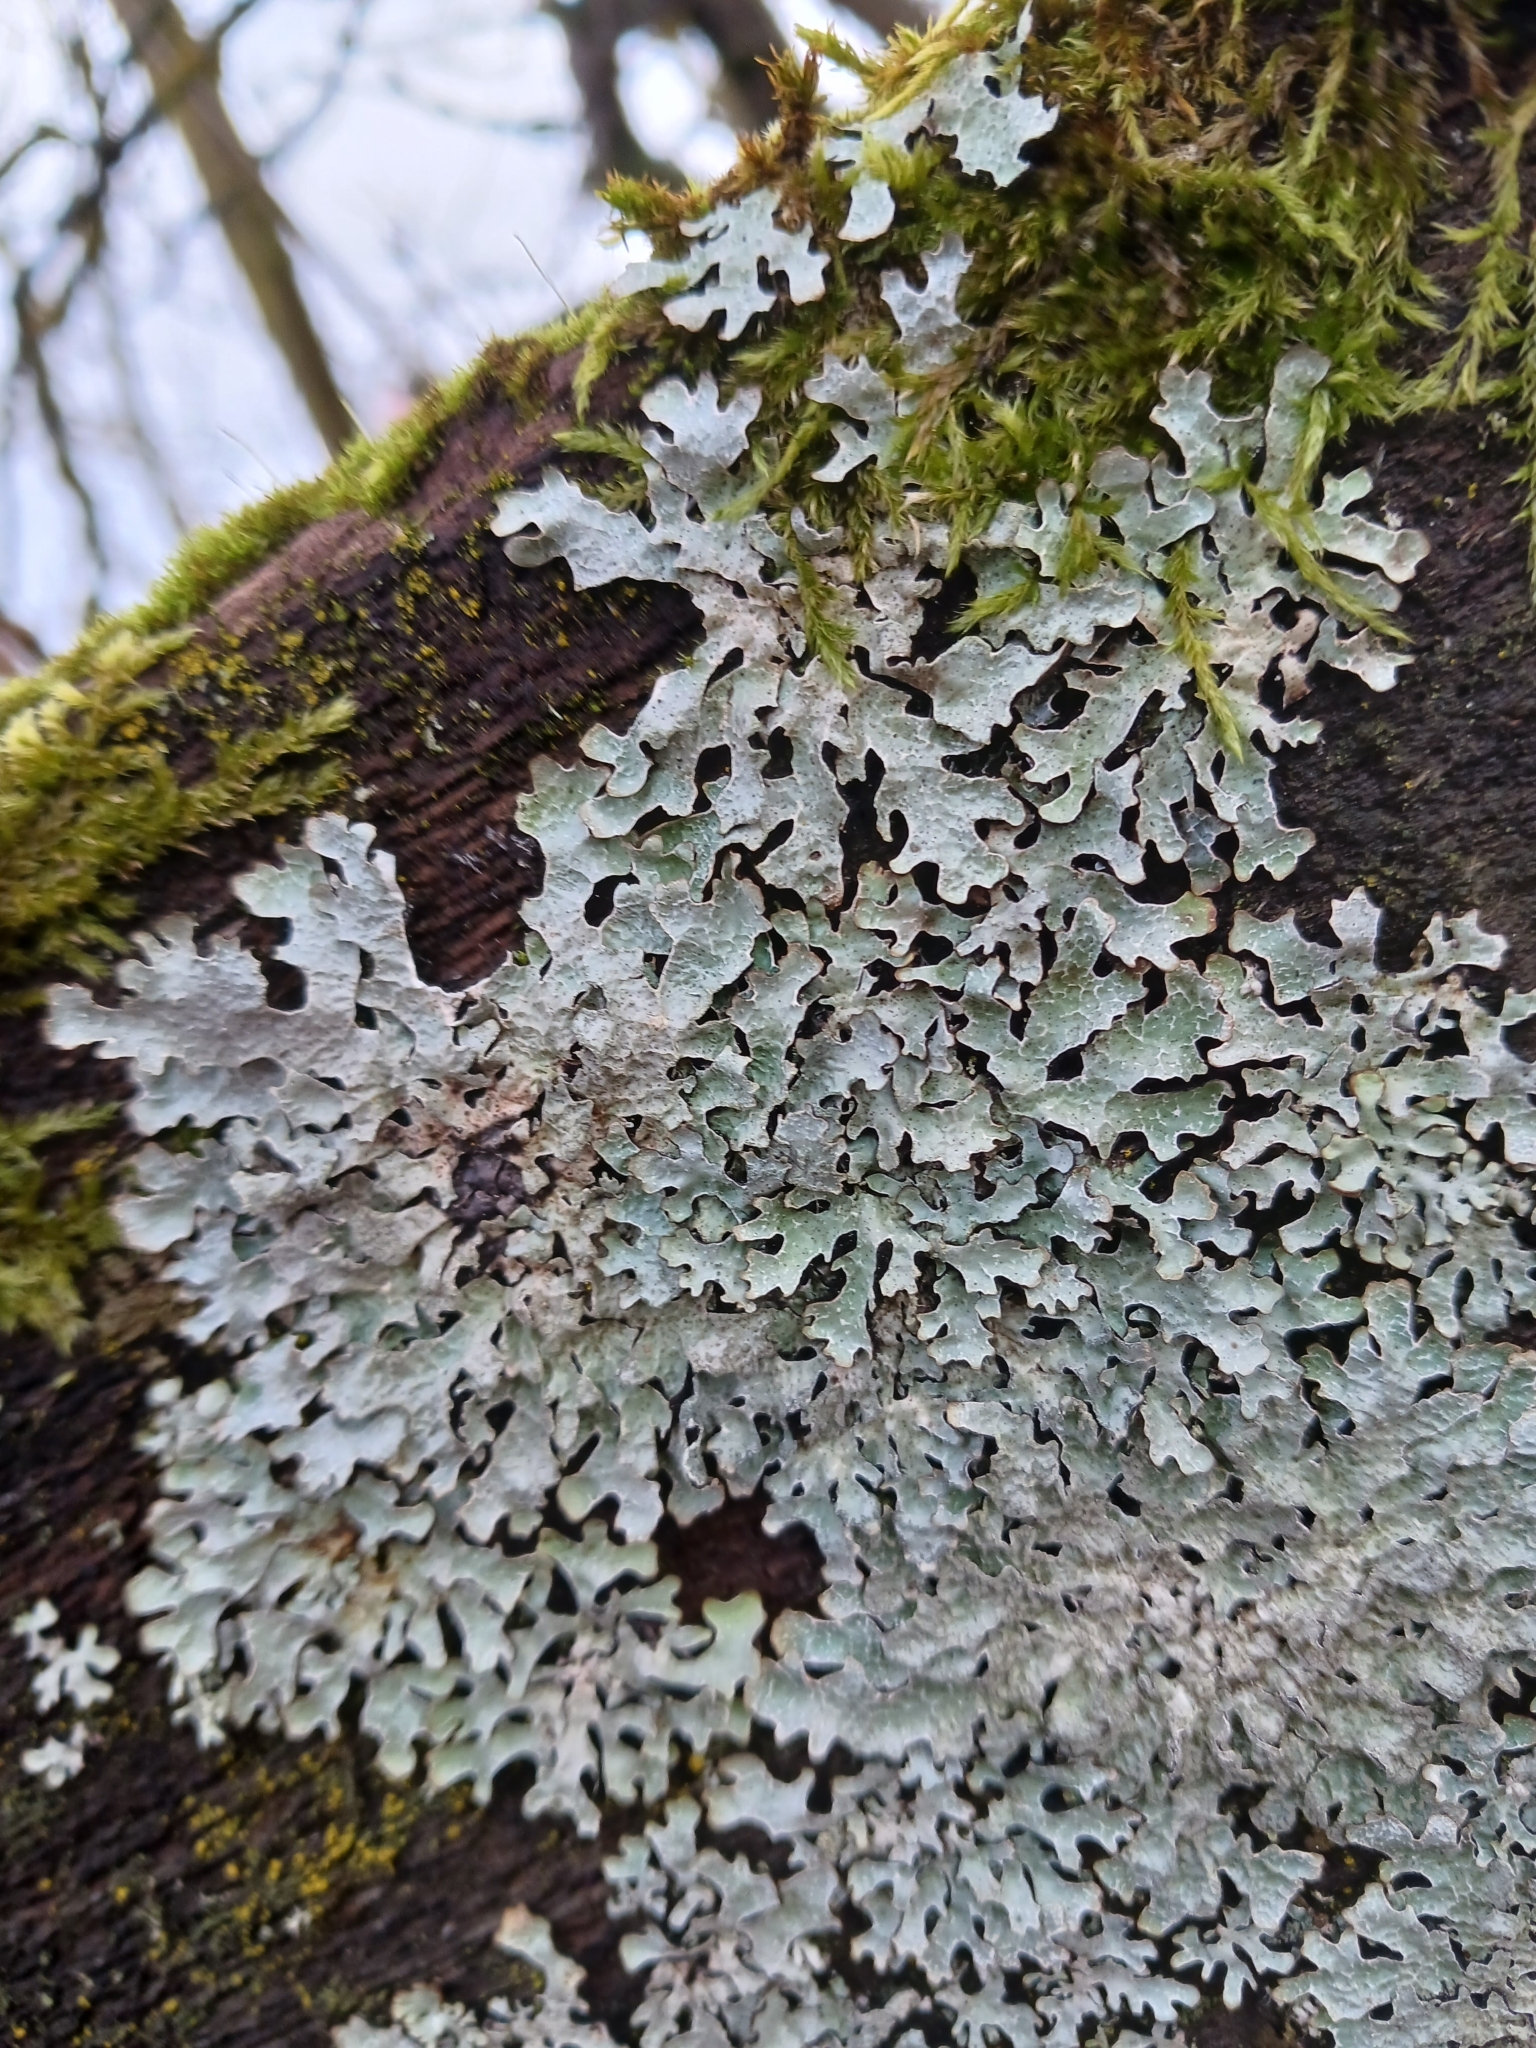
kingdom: Fungi
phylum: Ascomycota
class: Lecanoromycetes
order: Lecanorales
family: Parmeliaceae
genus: Parmelia
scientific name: Parmelia sulcata
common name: Netted shield lichen
